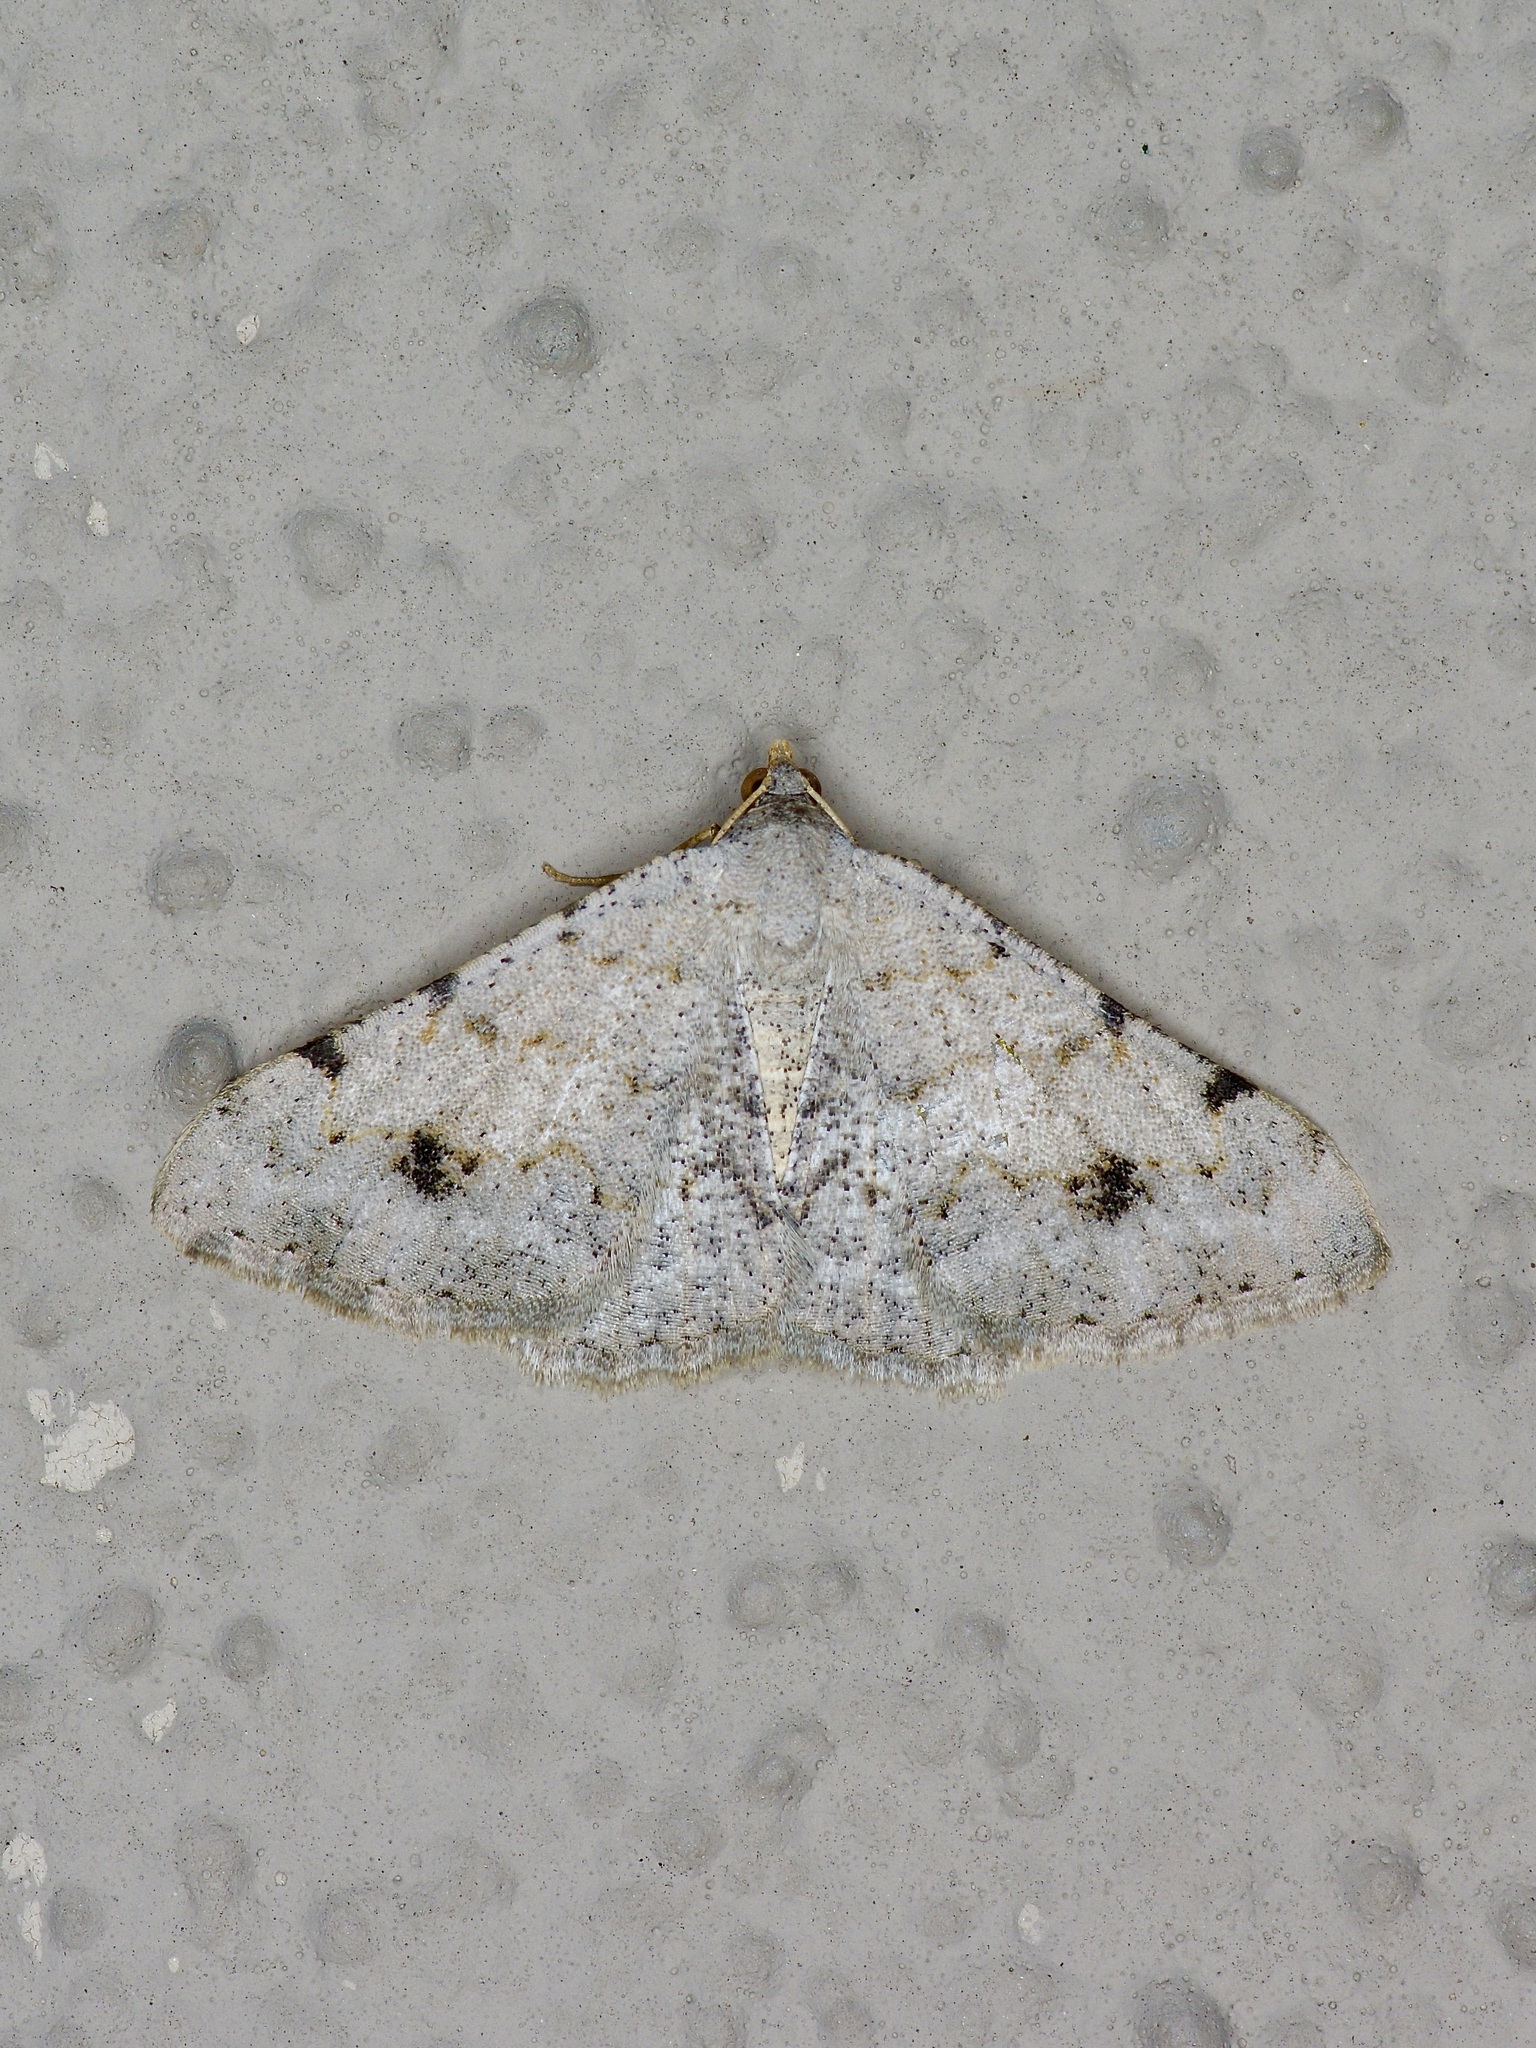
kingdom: Animalia
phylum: Arthropoda
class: Insecta
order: Lepidoptera
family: Geometridae
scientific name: Geometridae
